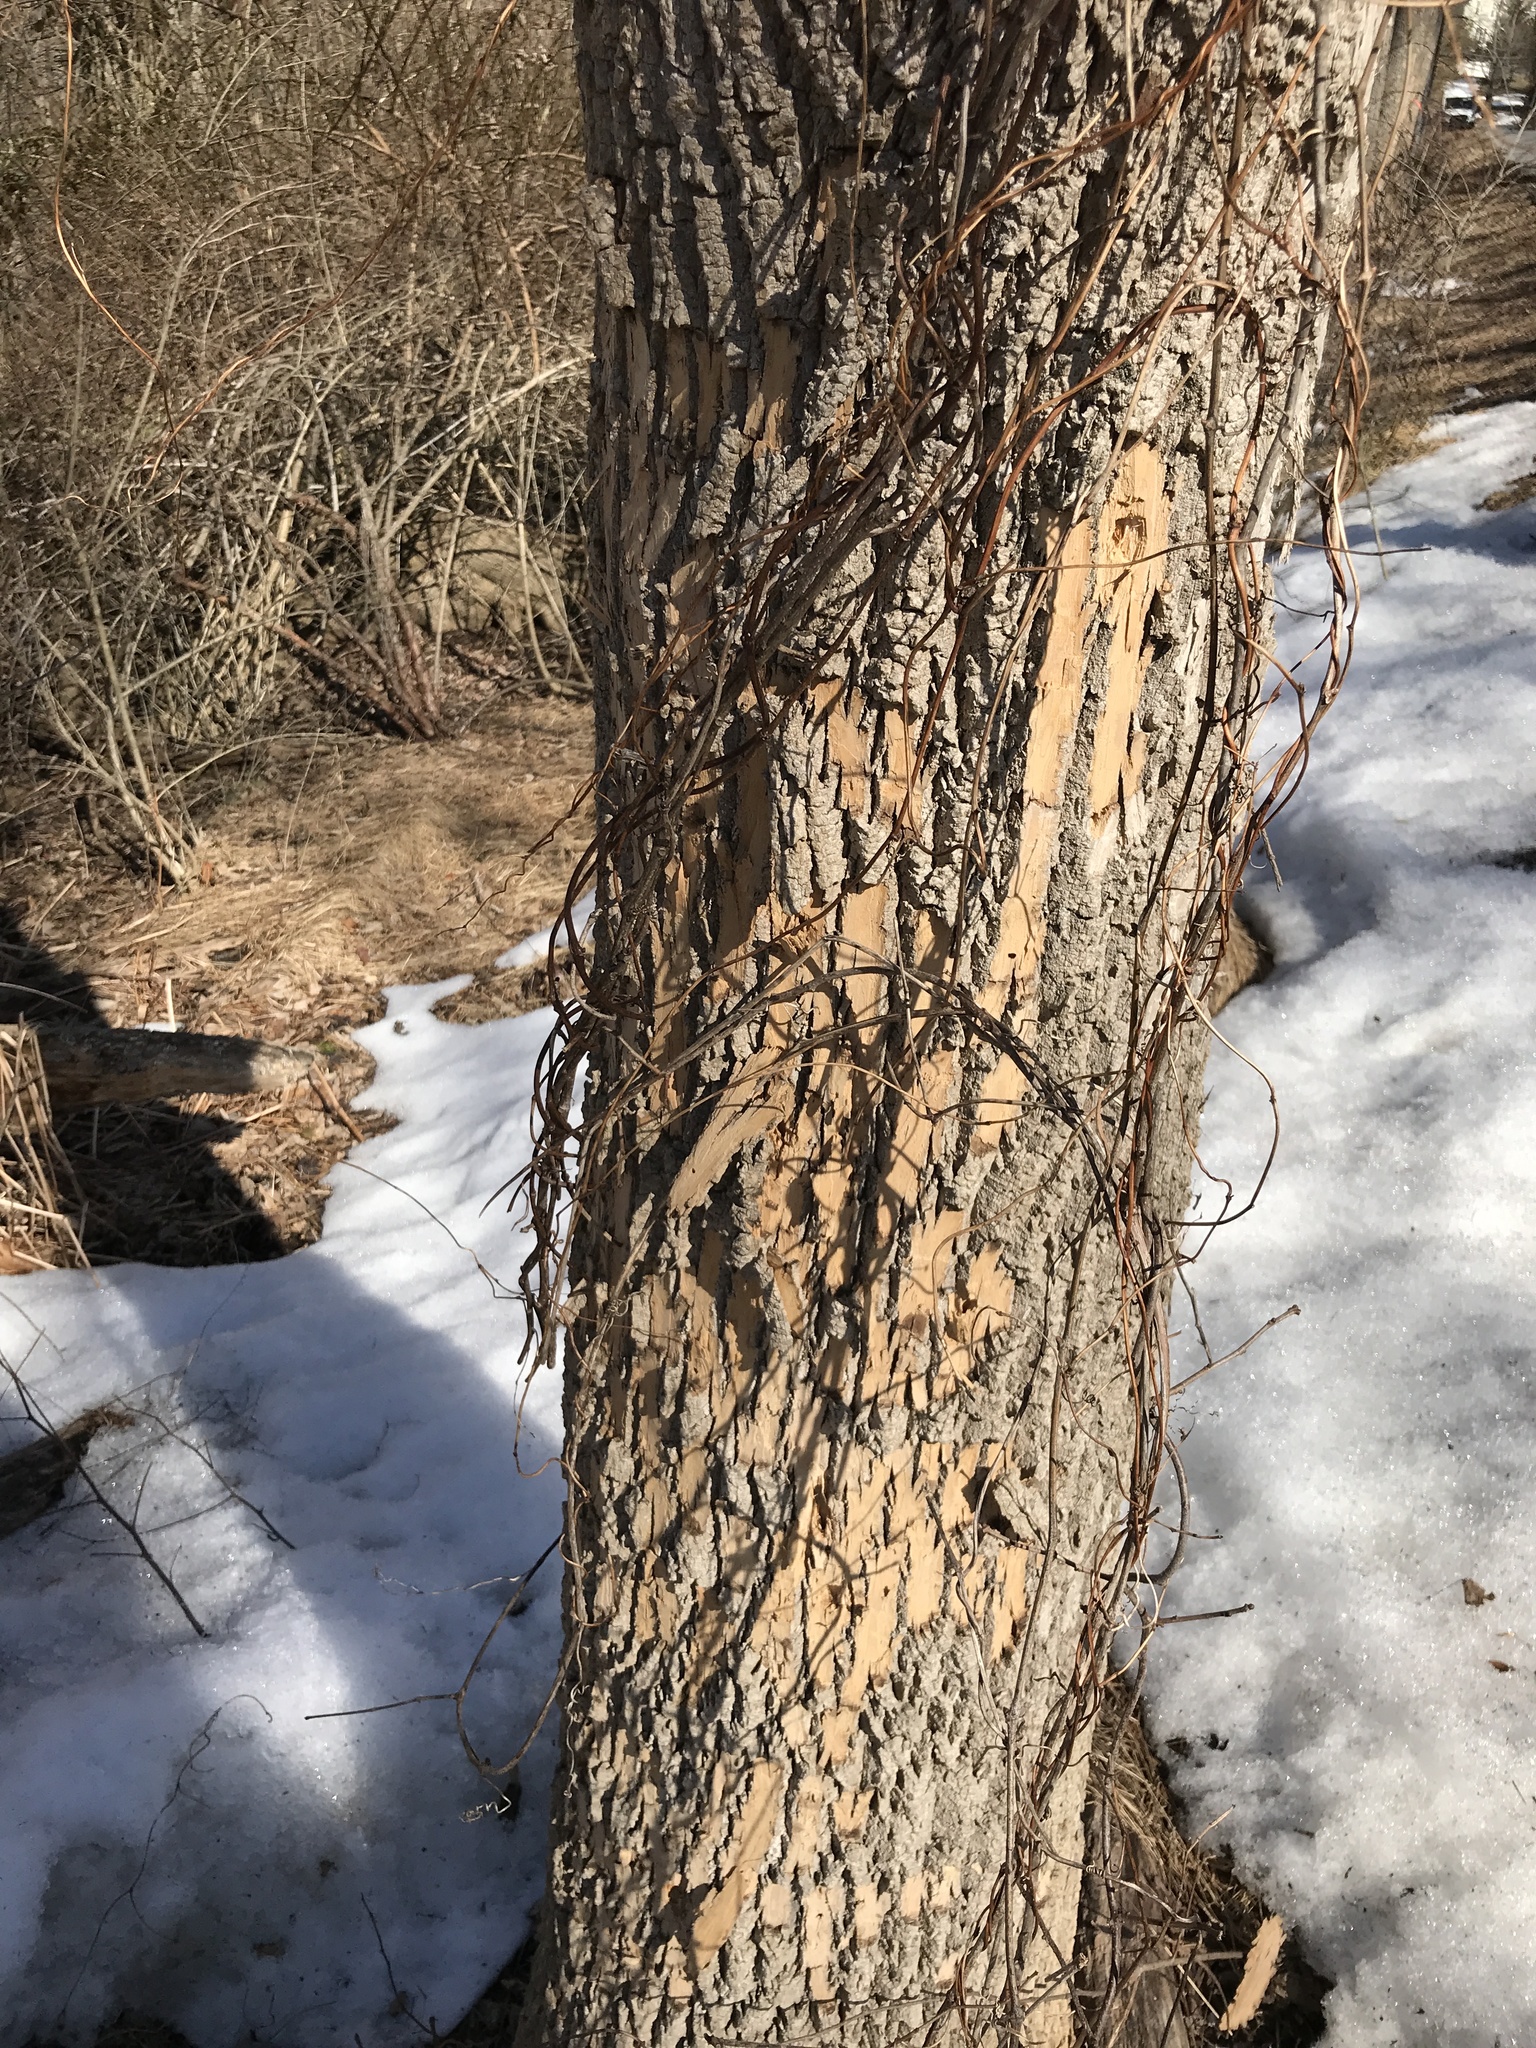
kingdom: Animalia
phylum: Arthropoda
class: Insecta
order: Coleoptera
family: Buprestidae
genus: Agrilus
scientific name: Agrilus planipennis
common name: Emerald ash borer
